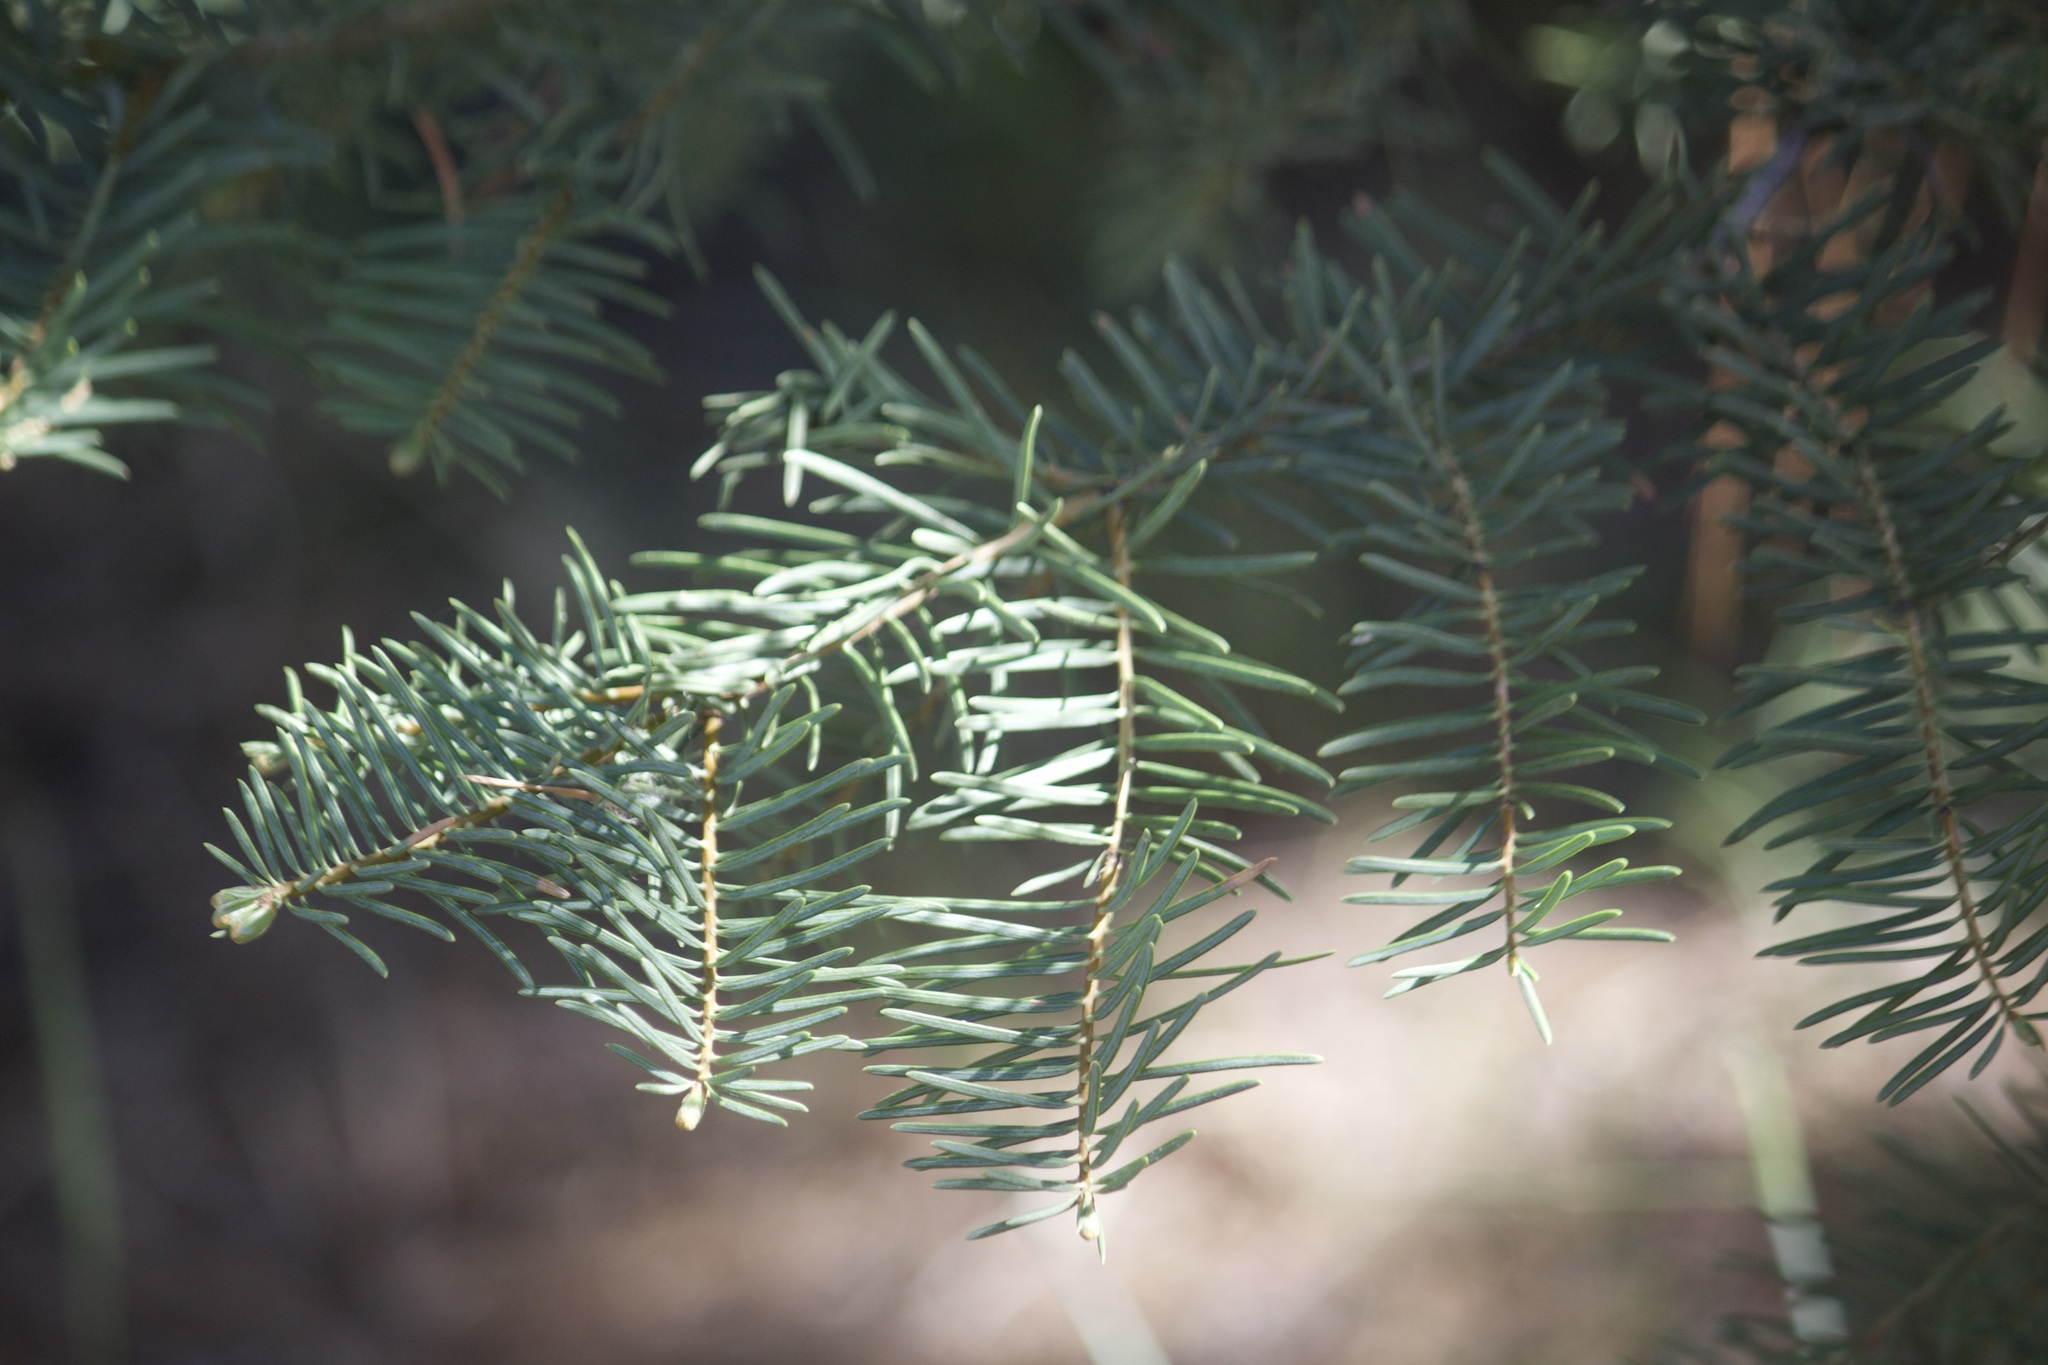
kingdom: Plantae
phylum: Tracheophyta
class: Pinopsida
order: Pinales
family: Pinaceae
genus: Abies
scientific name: Abies concolor
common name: Colorado fir
